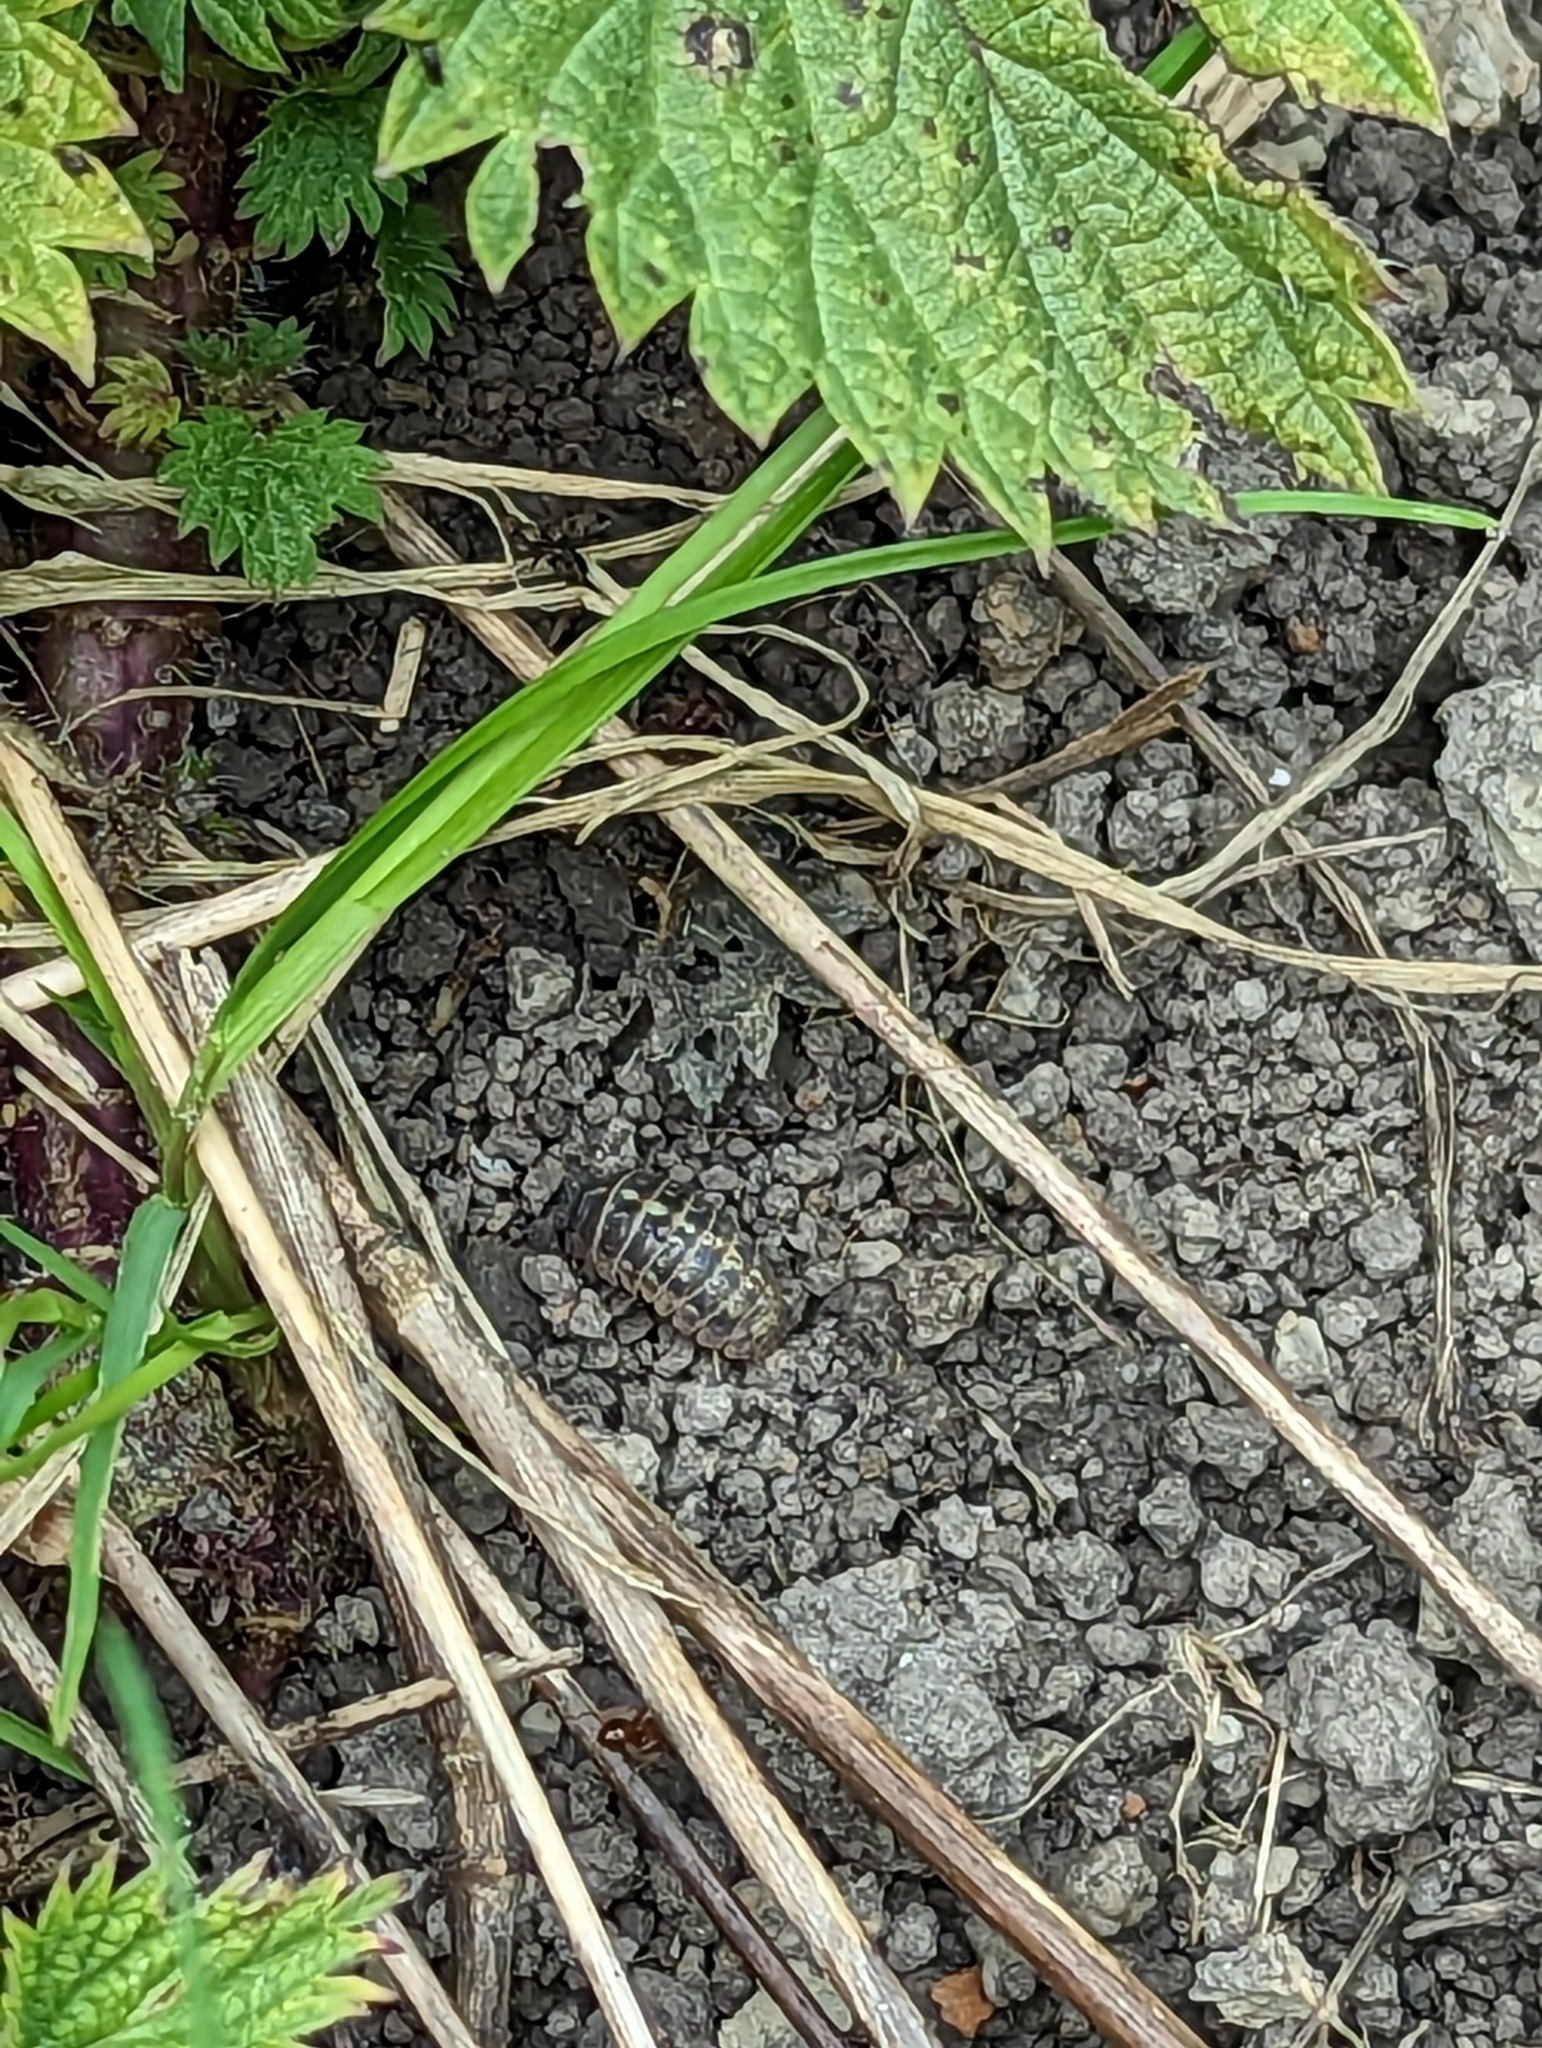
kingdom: Animalia
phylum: Arthropoda
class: Malacostraca
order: Isopoda
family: Armadillidiidae
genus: Armadillidium
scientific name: Armadillidium vulgare
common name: Common pill woodlouse
